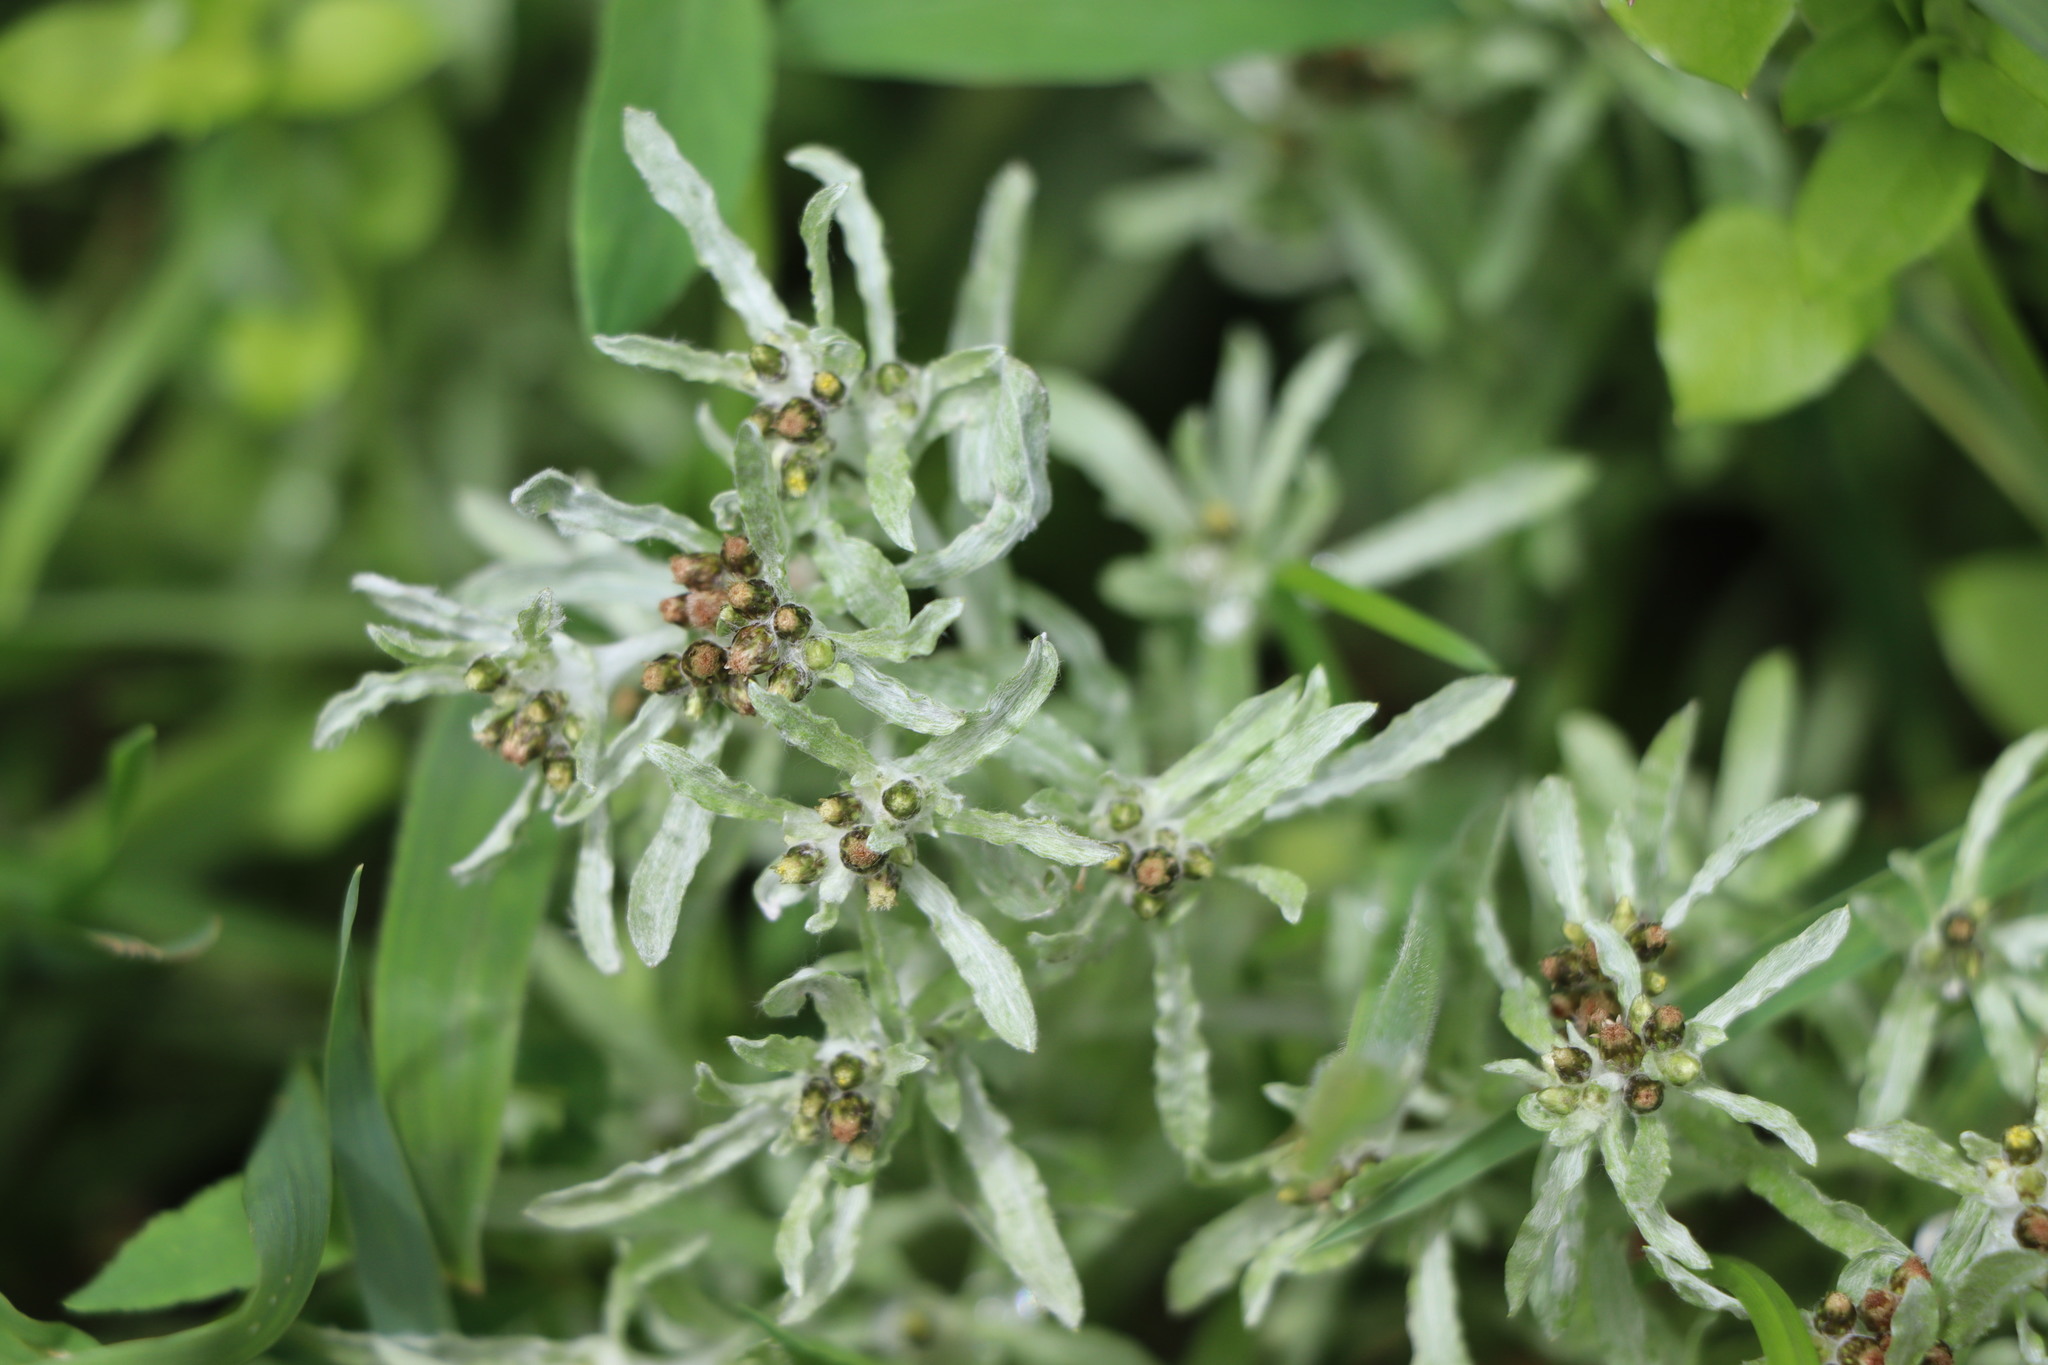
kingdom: Plantae
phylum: Tracheophyta
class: Magnoliopsida
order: Asterales
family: Asteraceae
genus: Gnaphalium
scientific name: Gnaphalium uliginosum
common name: Marsh cudweed
